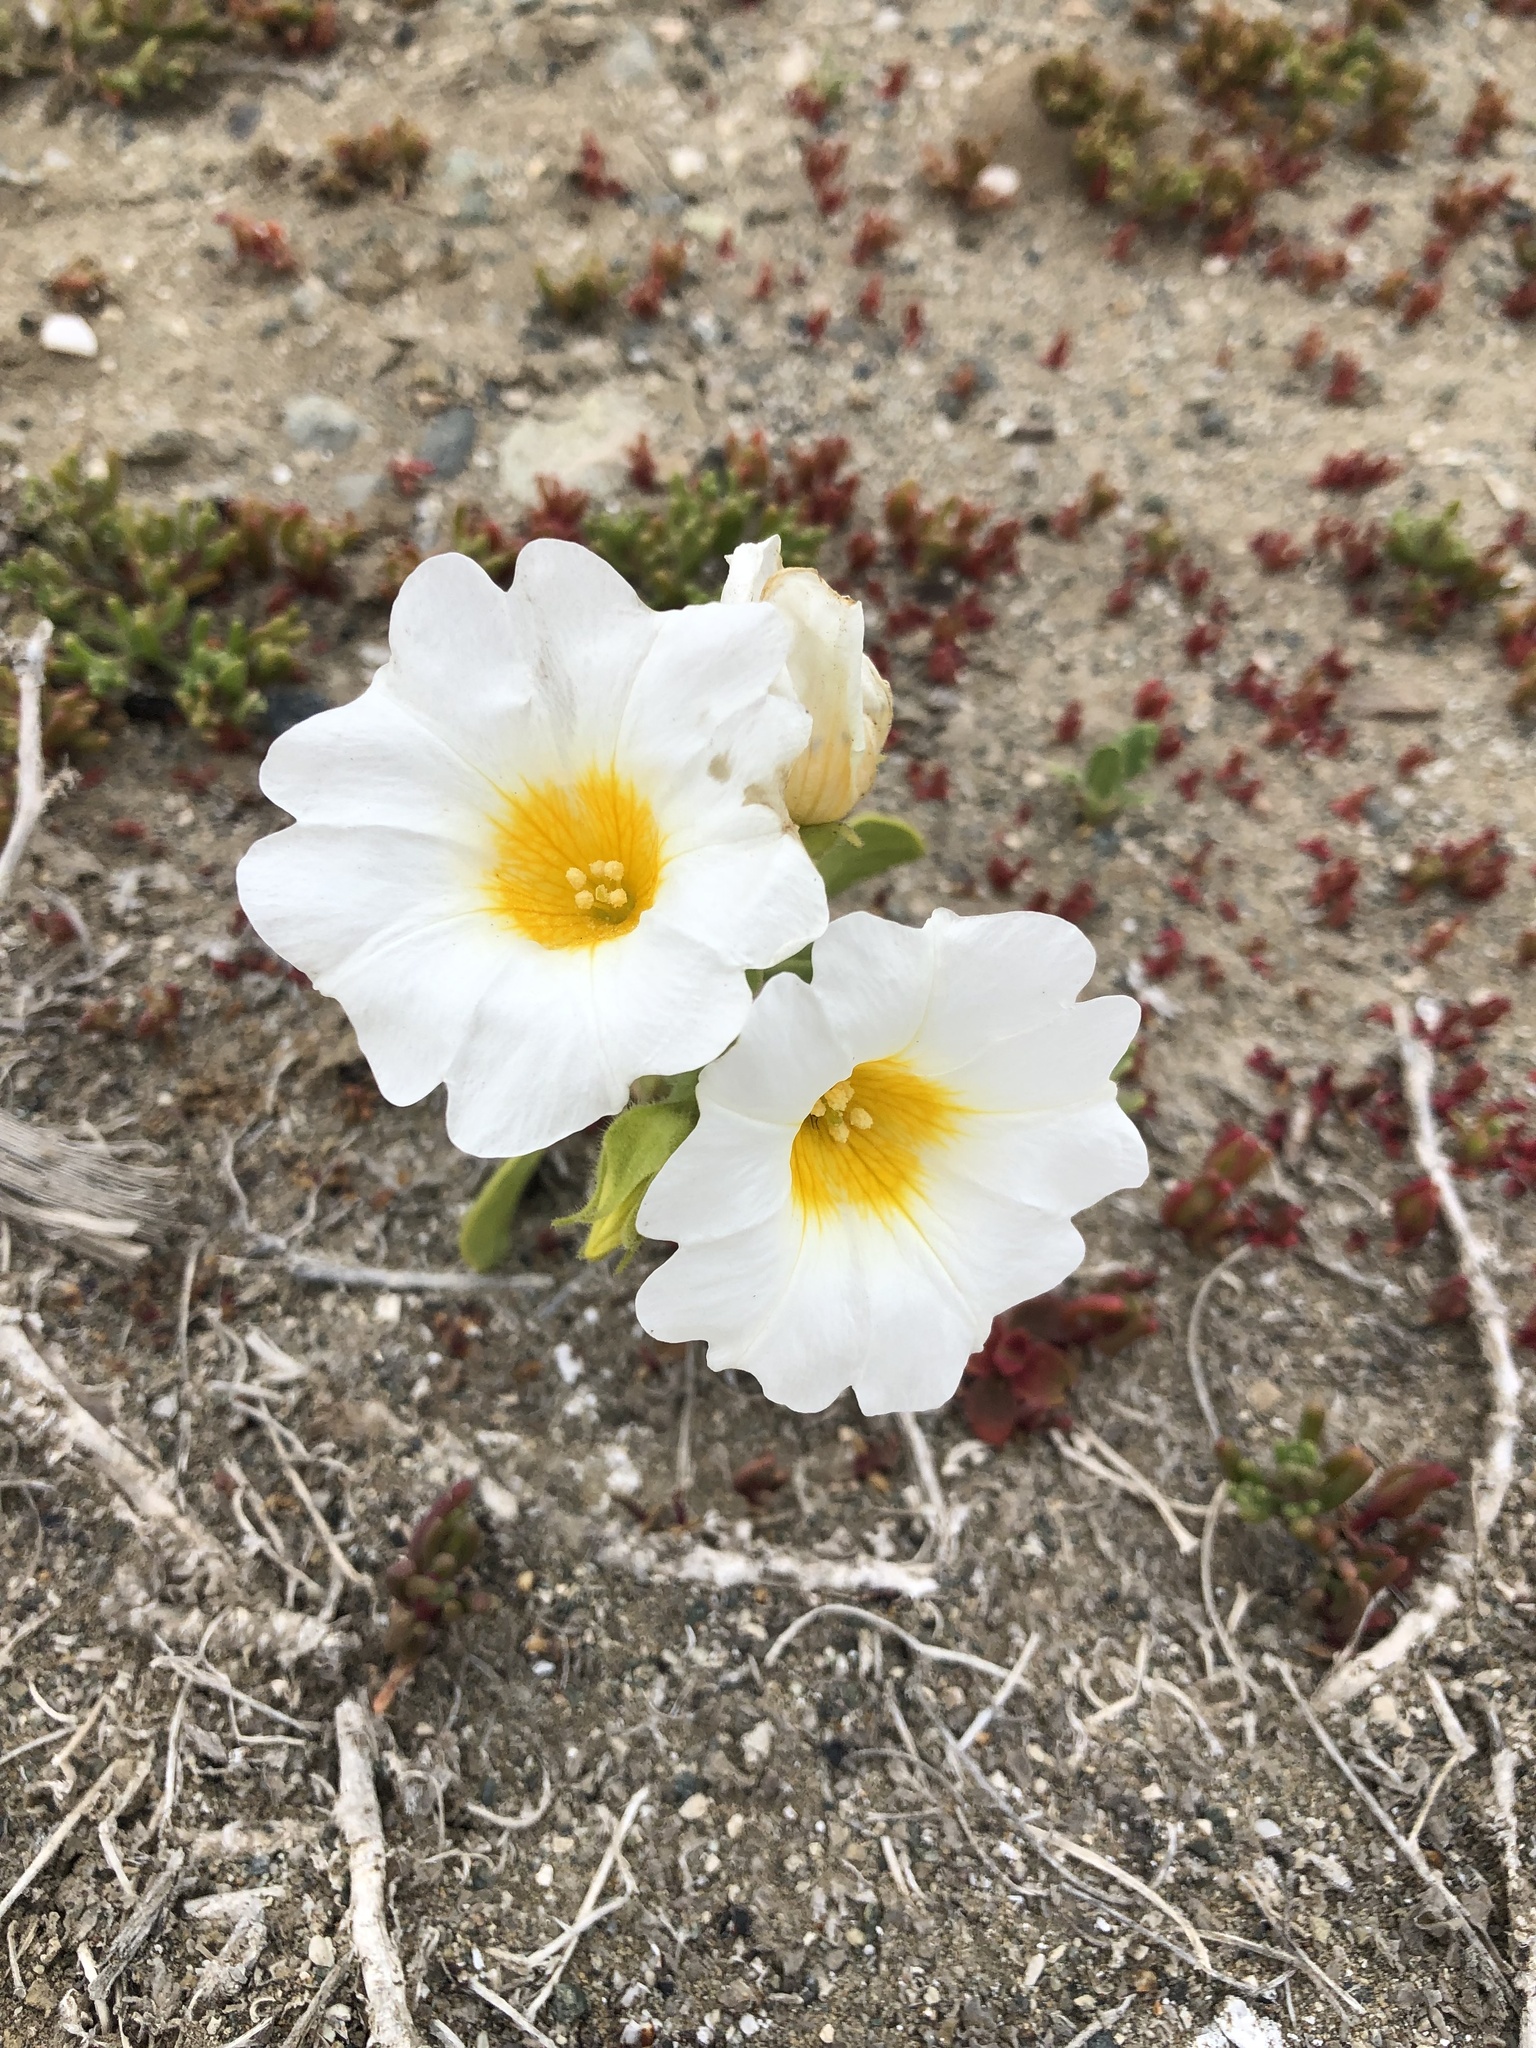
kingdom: Plantae
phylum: Tracheophyta
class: Magnoliopsida
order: Solanales
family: Solanaceae
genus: Nolana
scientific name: Nolana baccata
